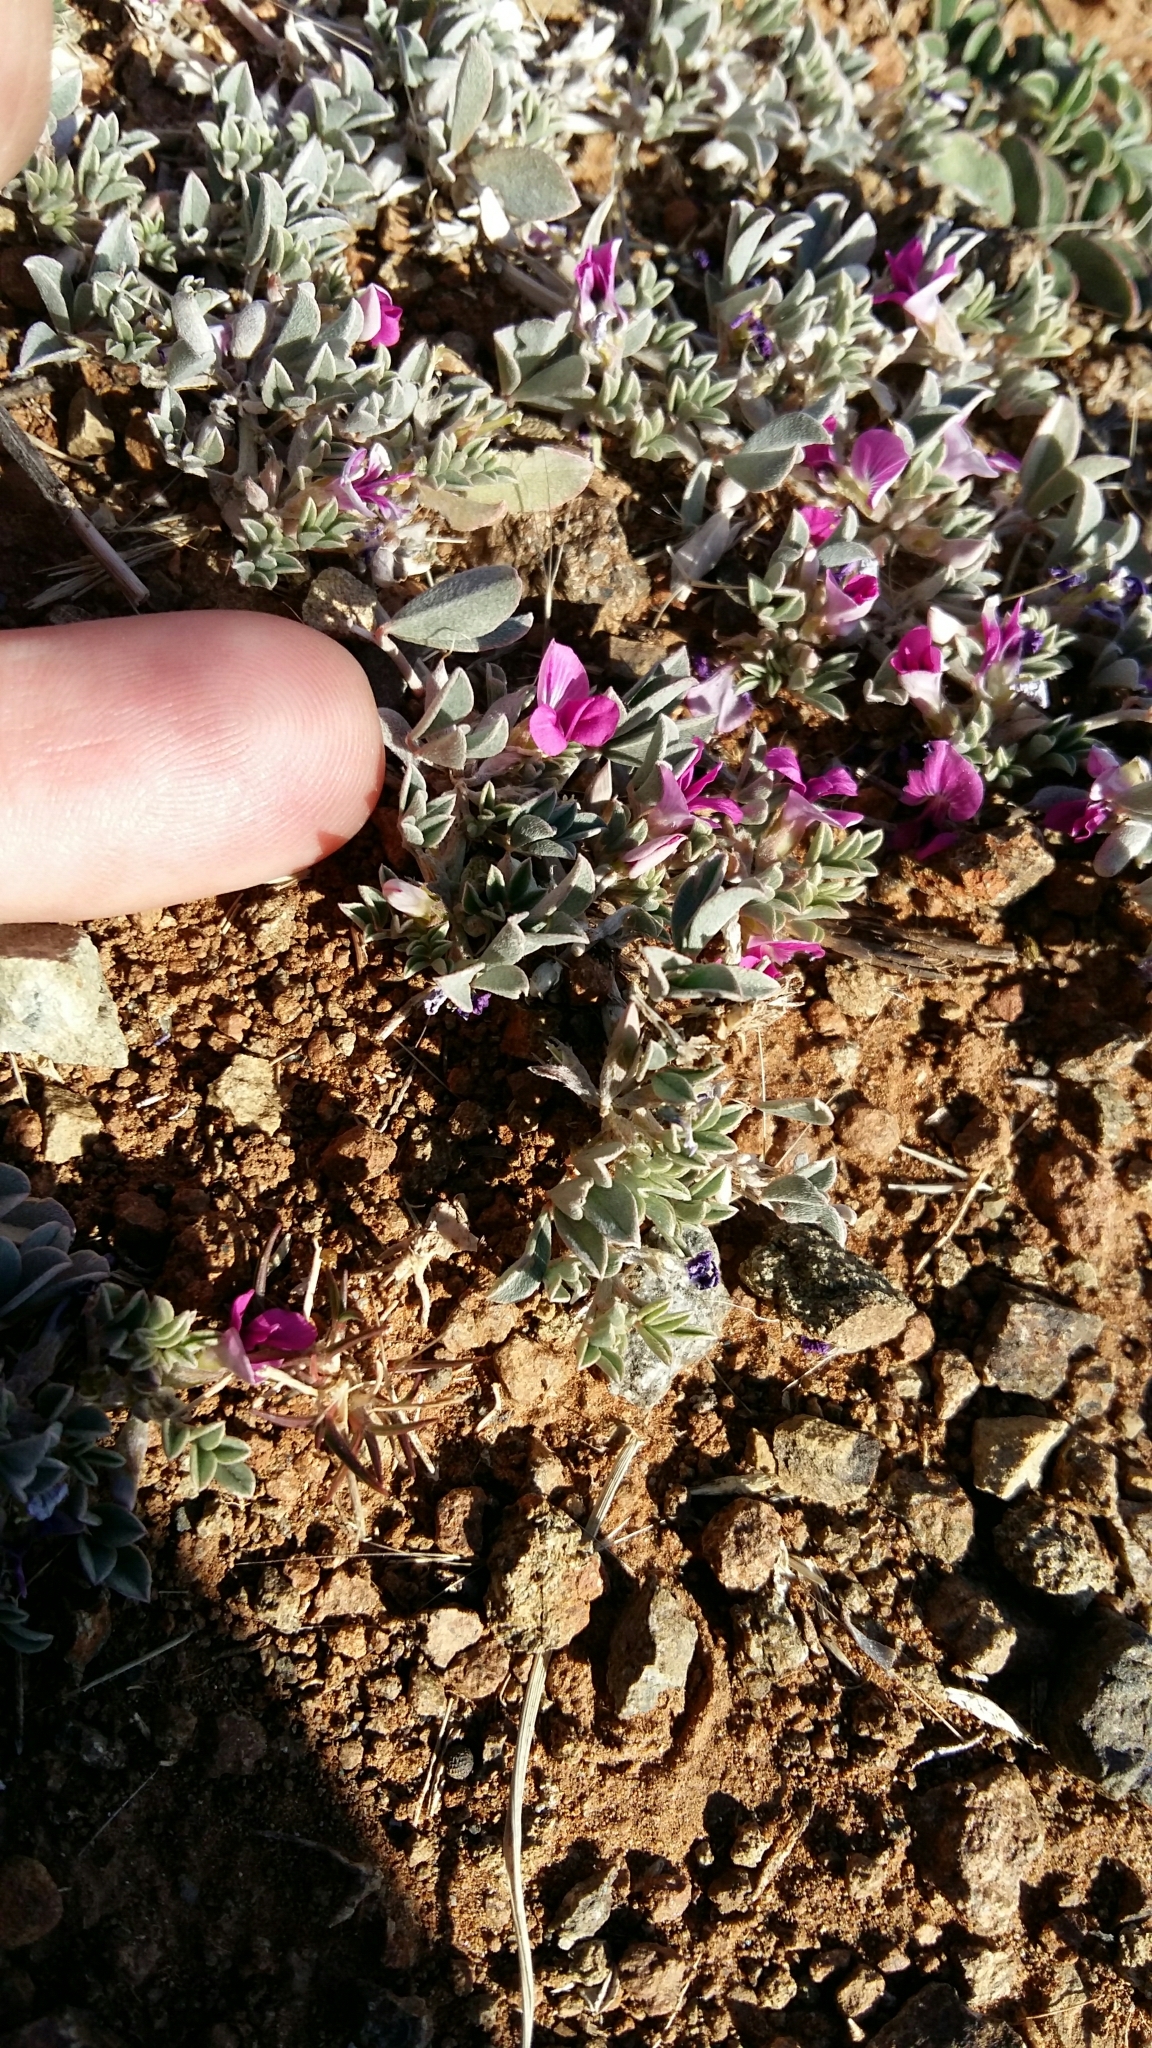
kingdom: Plantae
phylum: Tracheophyta
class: Magnoliopsida
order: Fabales
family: Fabaceae
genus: Indigastrum
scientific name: Indigastrum niveum
